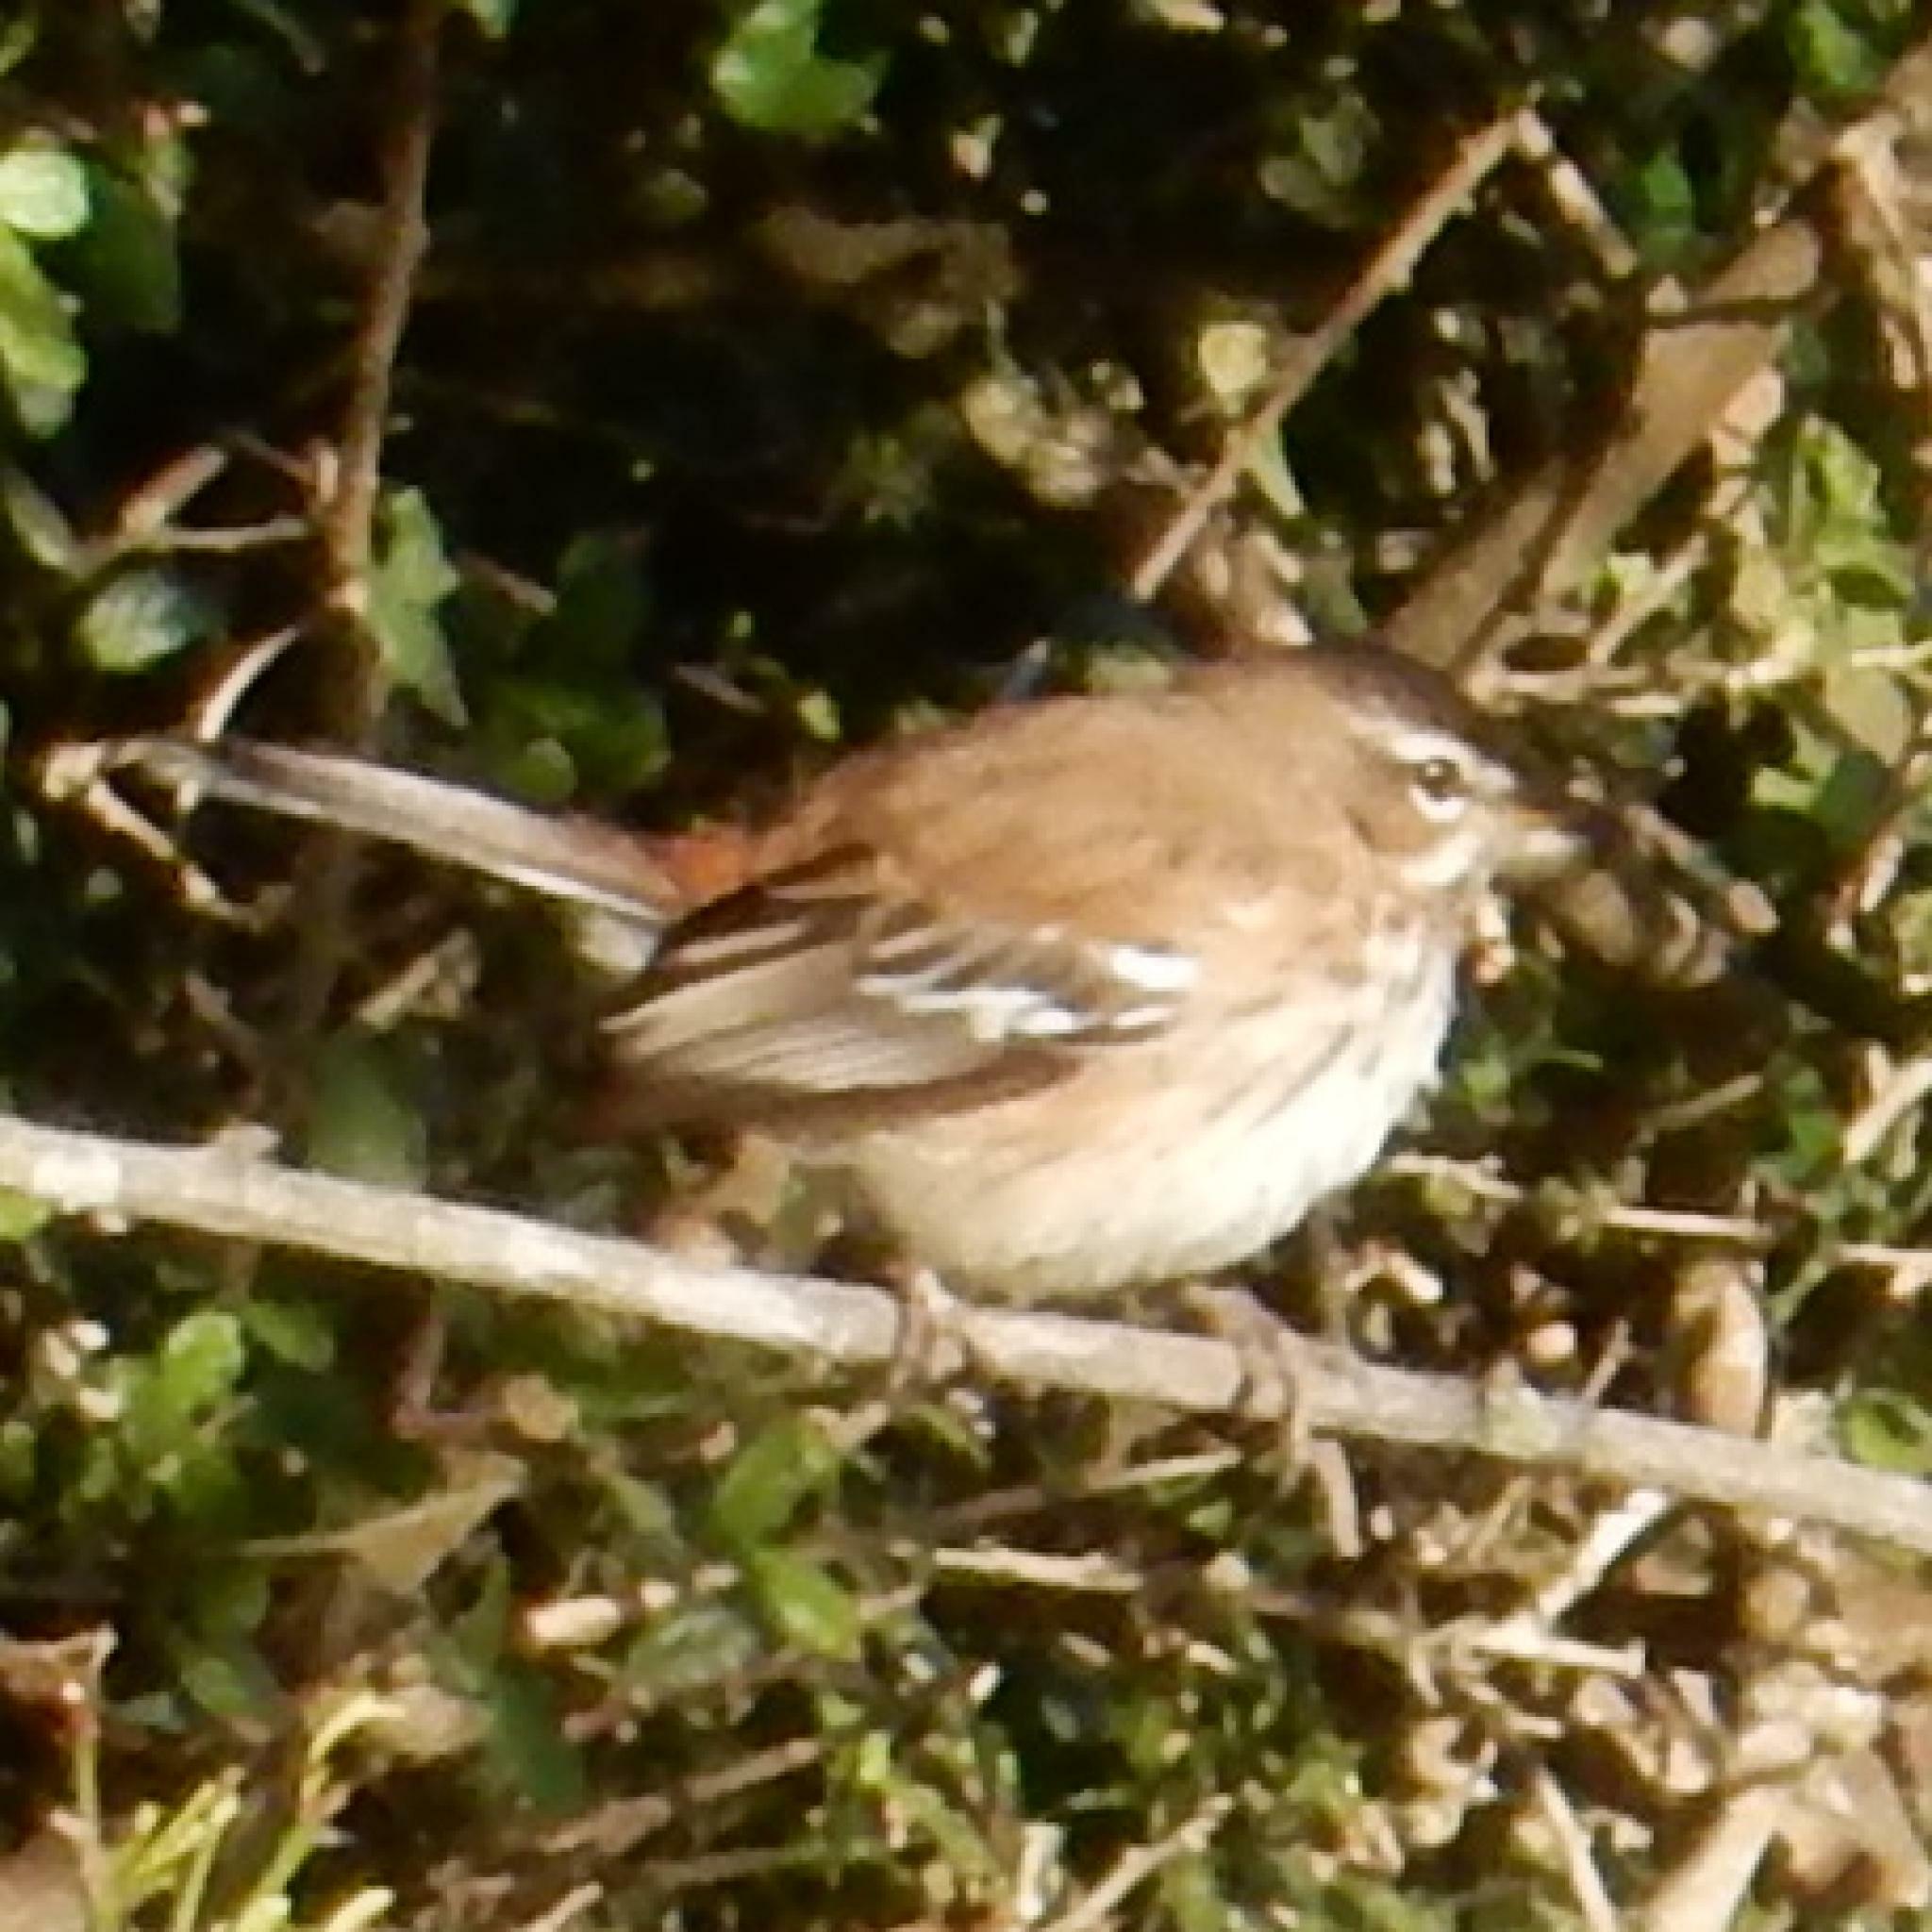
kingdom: Animalia
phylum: Chordata
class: Aves
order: Passeriformes
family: Muscicapidae
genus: Erythropygia
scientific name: Erythropygia leucophrys
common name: White-browed scrub robin
